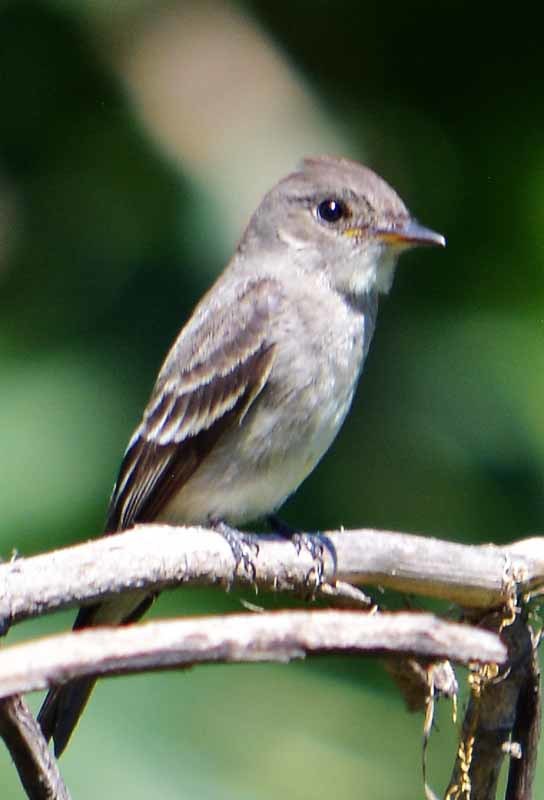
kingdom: Animalia
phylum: Chordata
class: Aves
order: Passeriformes
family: Tyrannidae
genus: Contopus
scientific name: Contopus sordidulus
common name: Western wood-pewee
